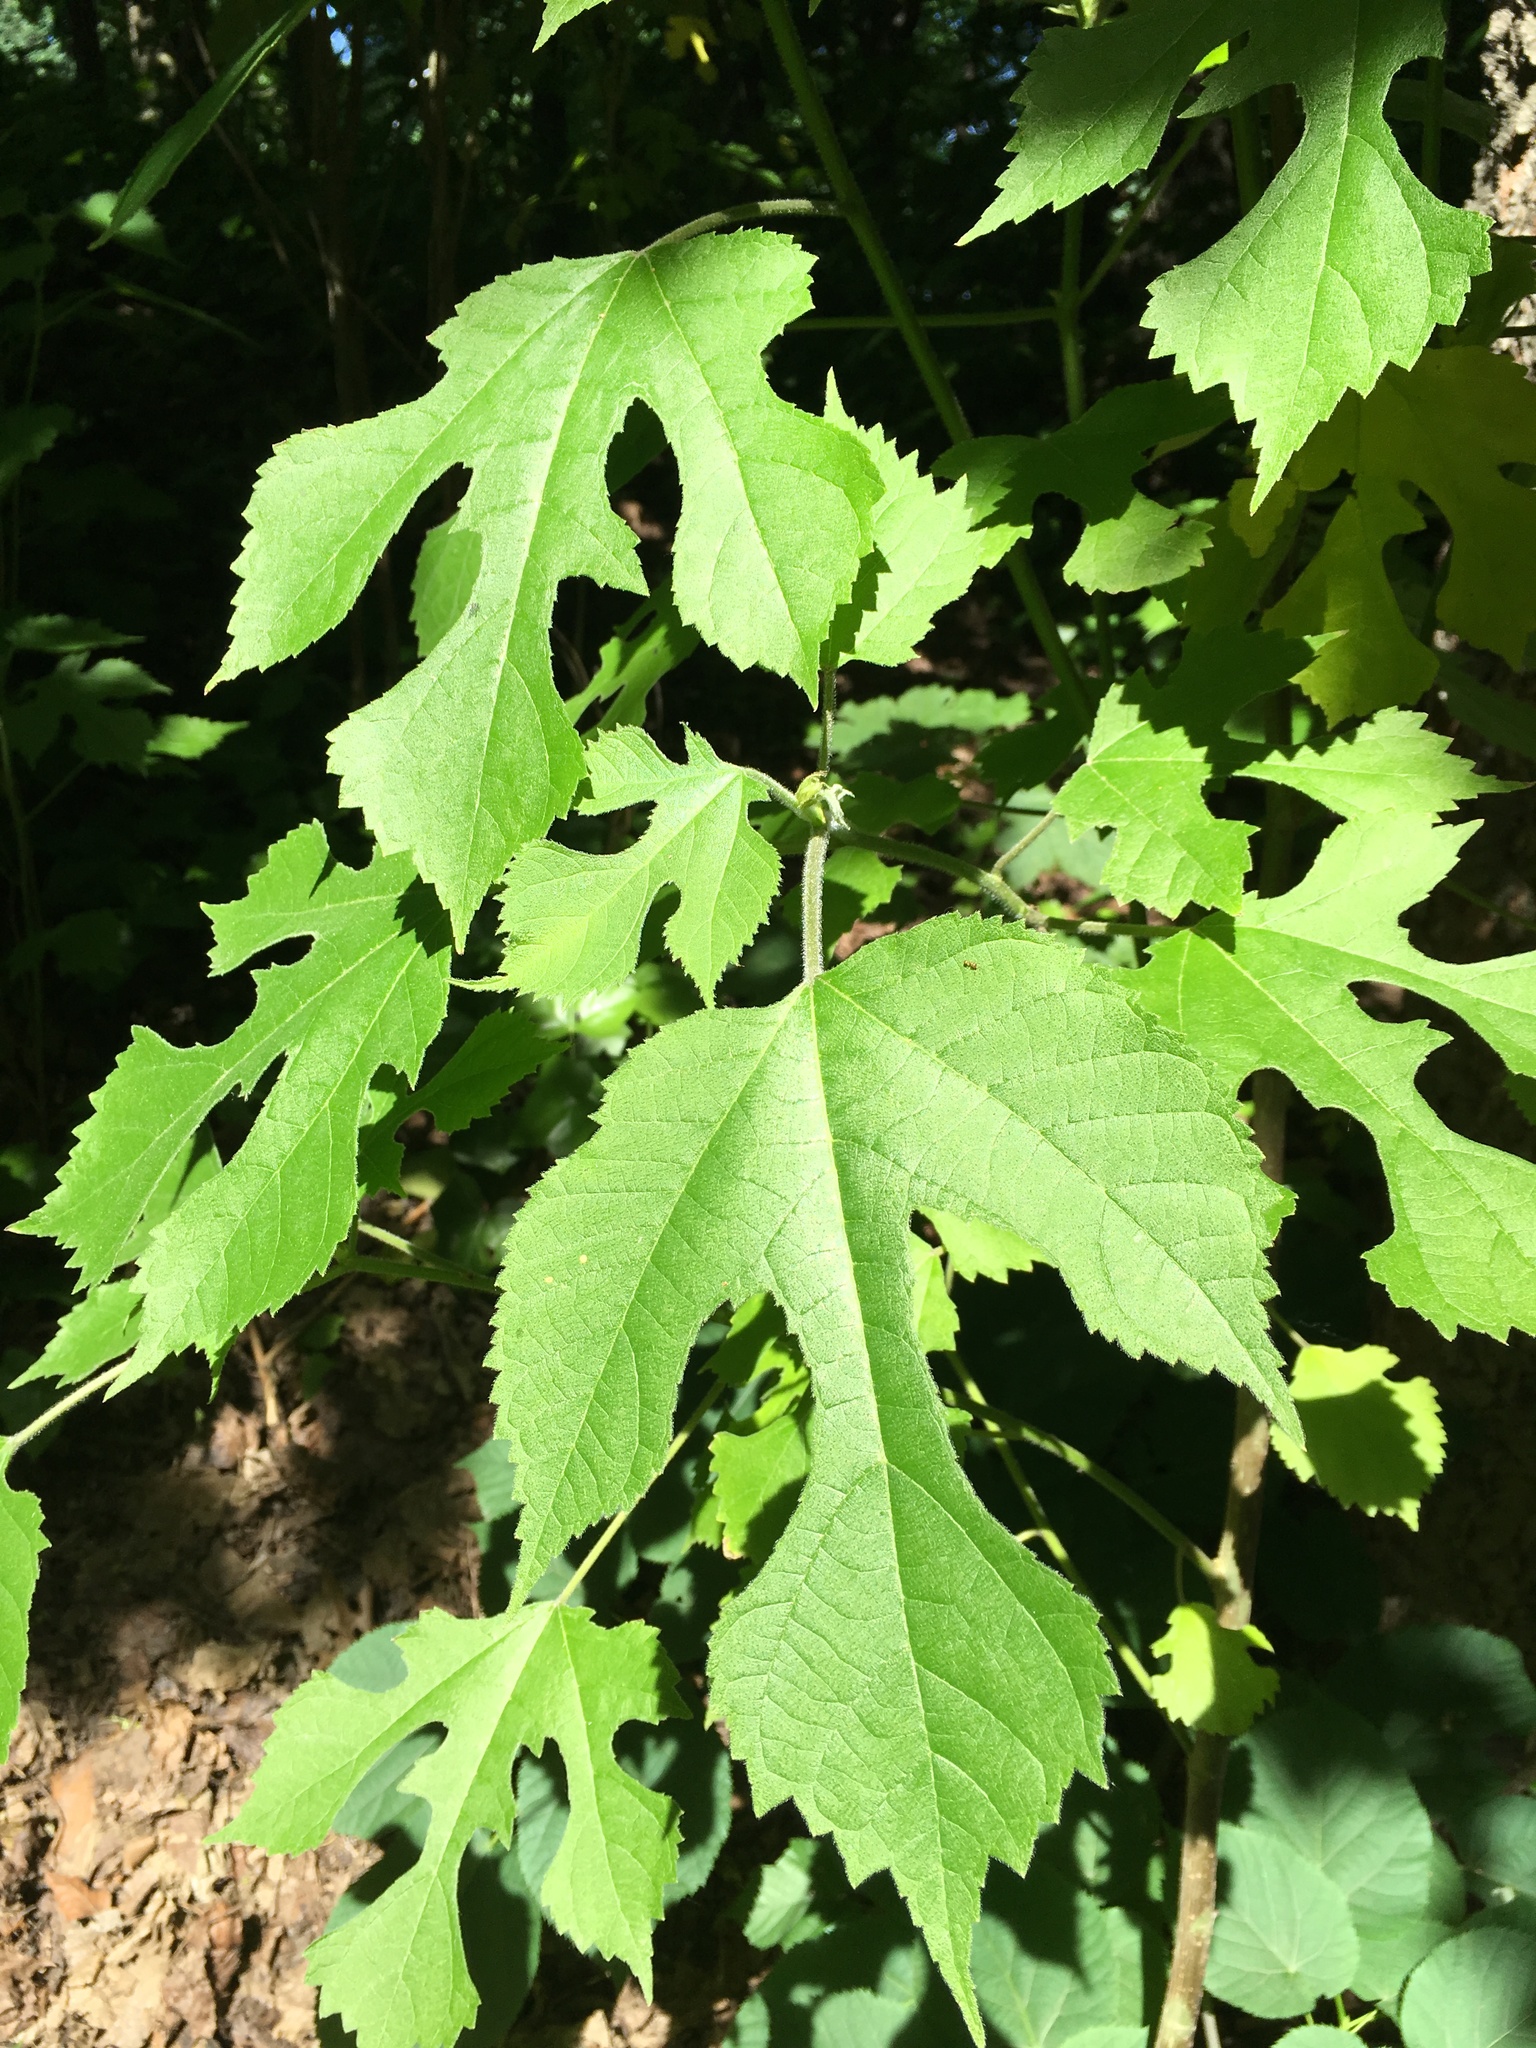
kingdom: Plantae
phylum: Tracheophyta
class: Magnoliopsida
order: Rosales
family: Moraceae
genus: Broussonetia
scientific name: Broussonetia papyrifera
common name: Paper mulberry
